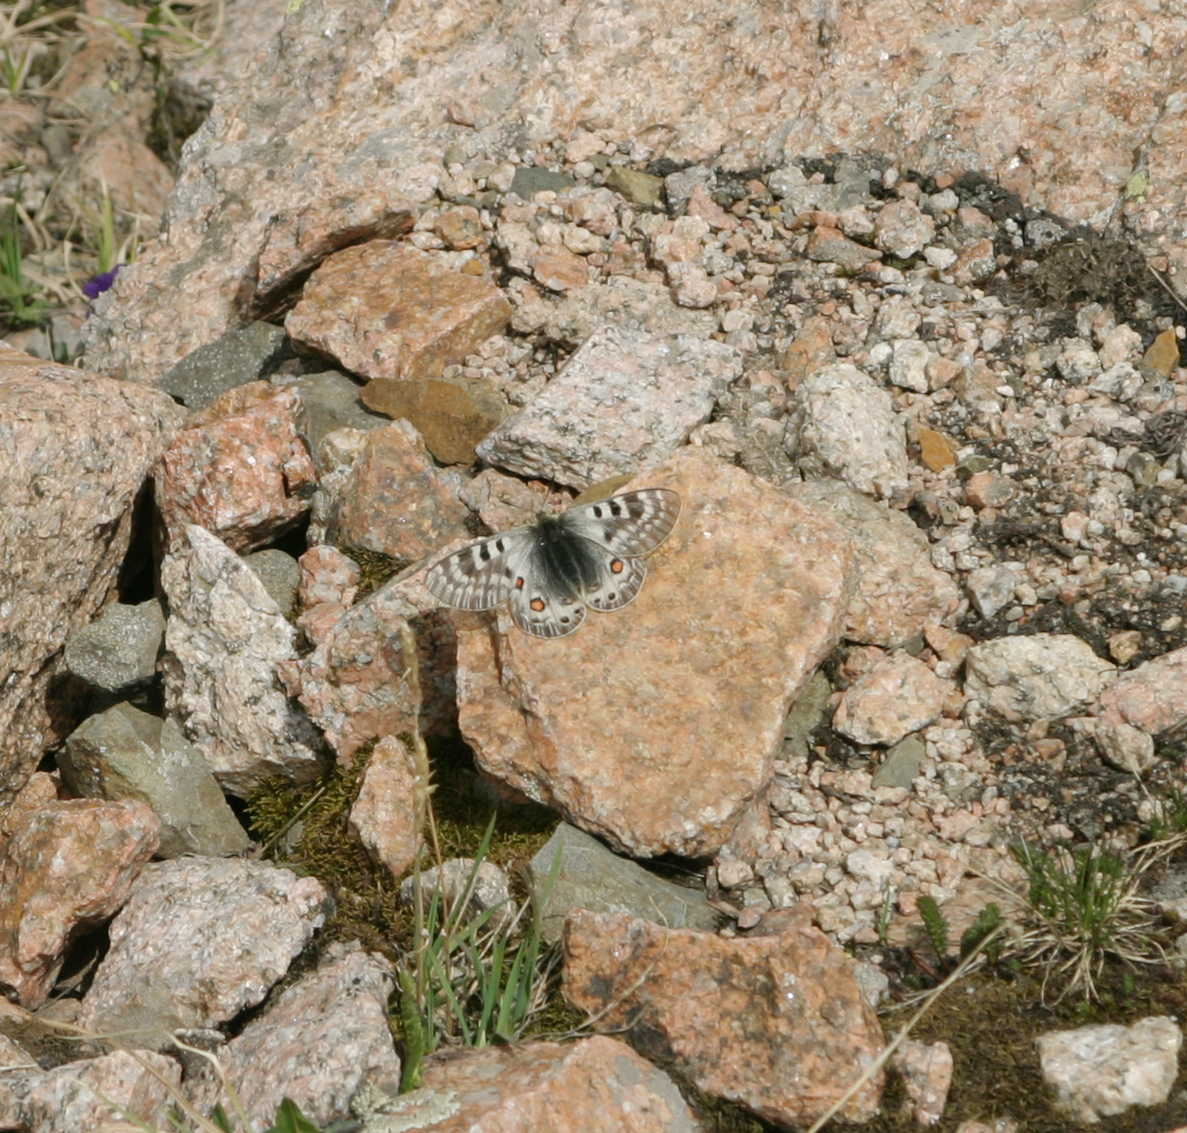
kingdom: Animalia
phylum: Arthropoda
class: Insecta
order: Lepidoptera
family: Papilionidae
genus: Parnassius
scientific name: Parnassius delphius
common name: Banded apollo
